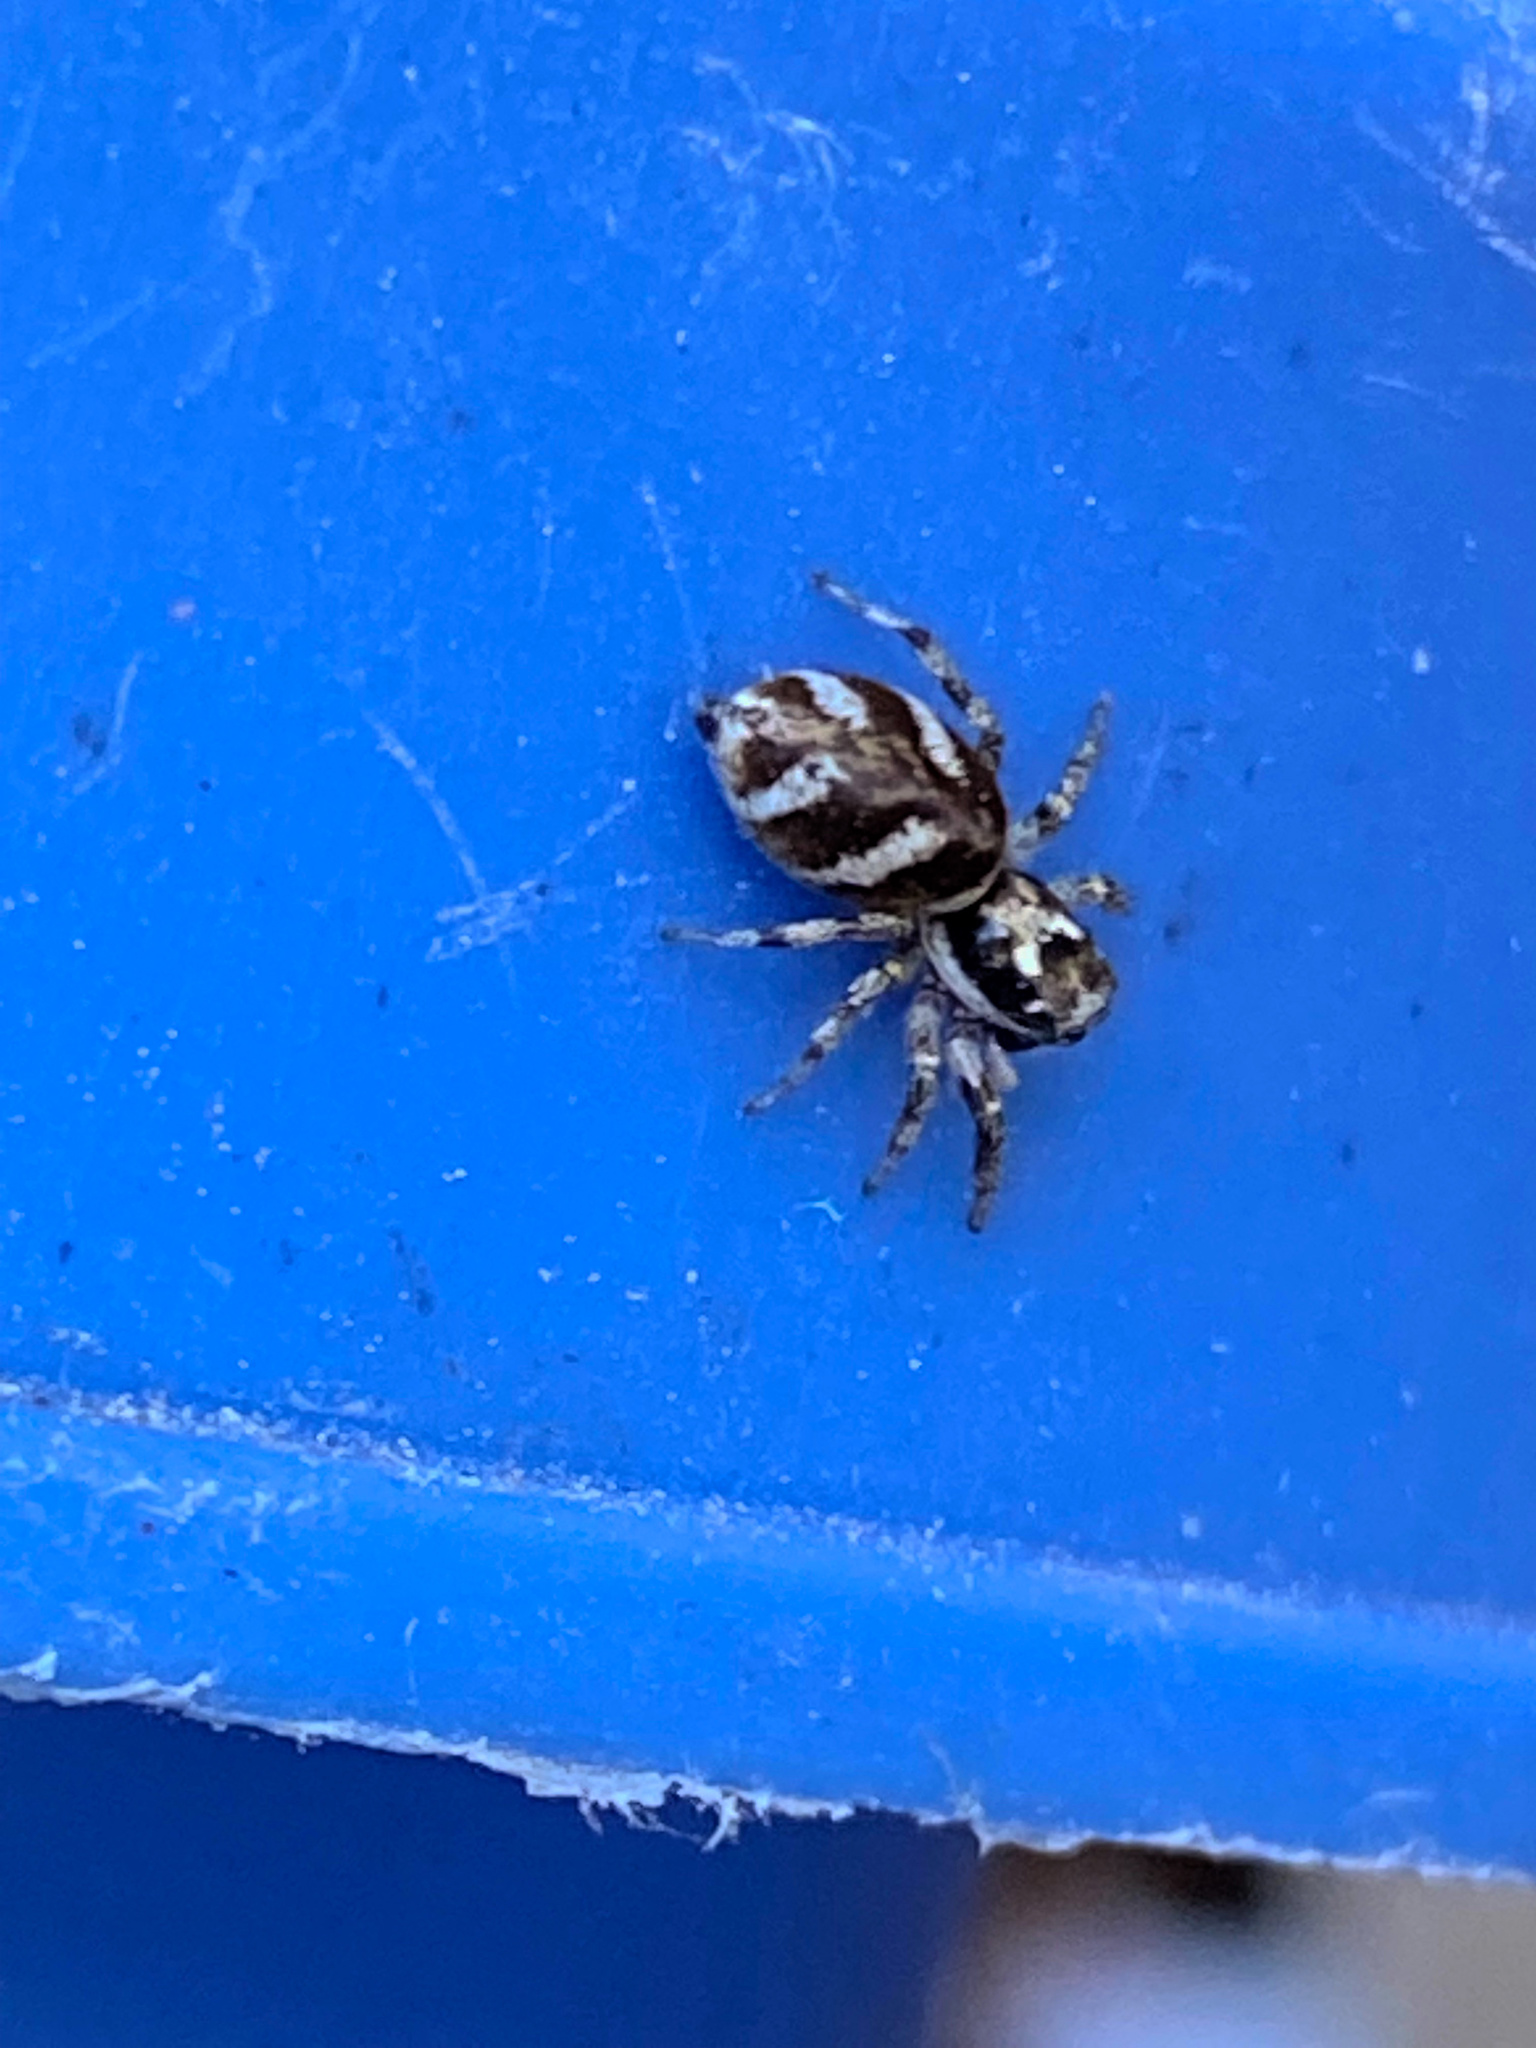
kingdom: Animalia
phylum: Arthropoda
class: Arachnida
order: Araneae
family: Salticidae
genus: Salticus
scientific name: Salticus scenicus
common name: Zebra jumper
